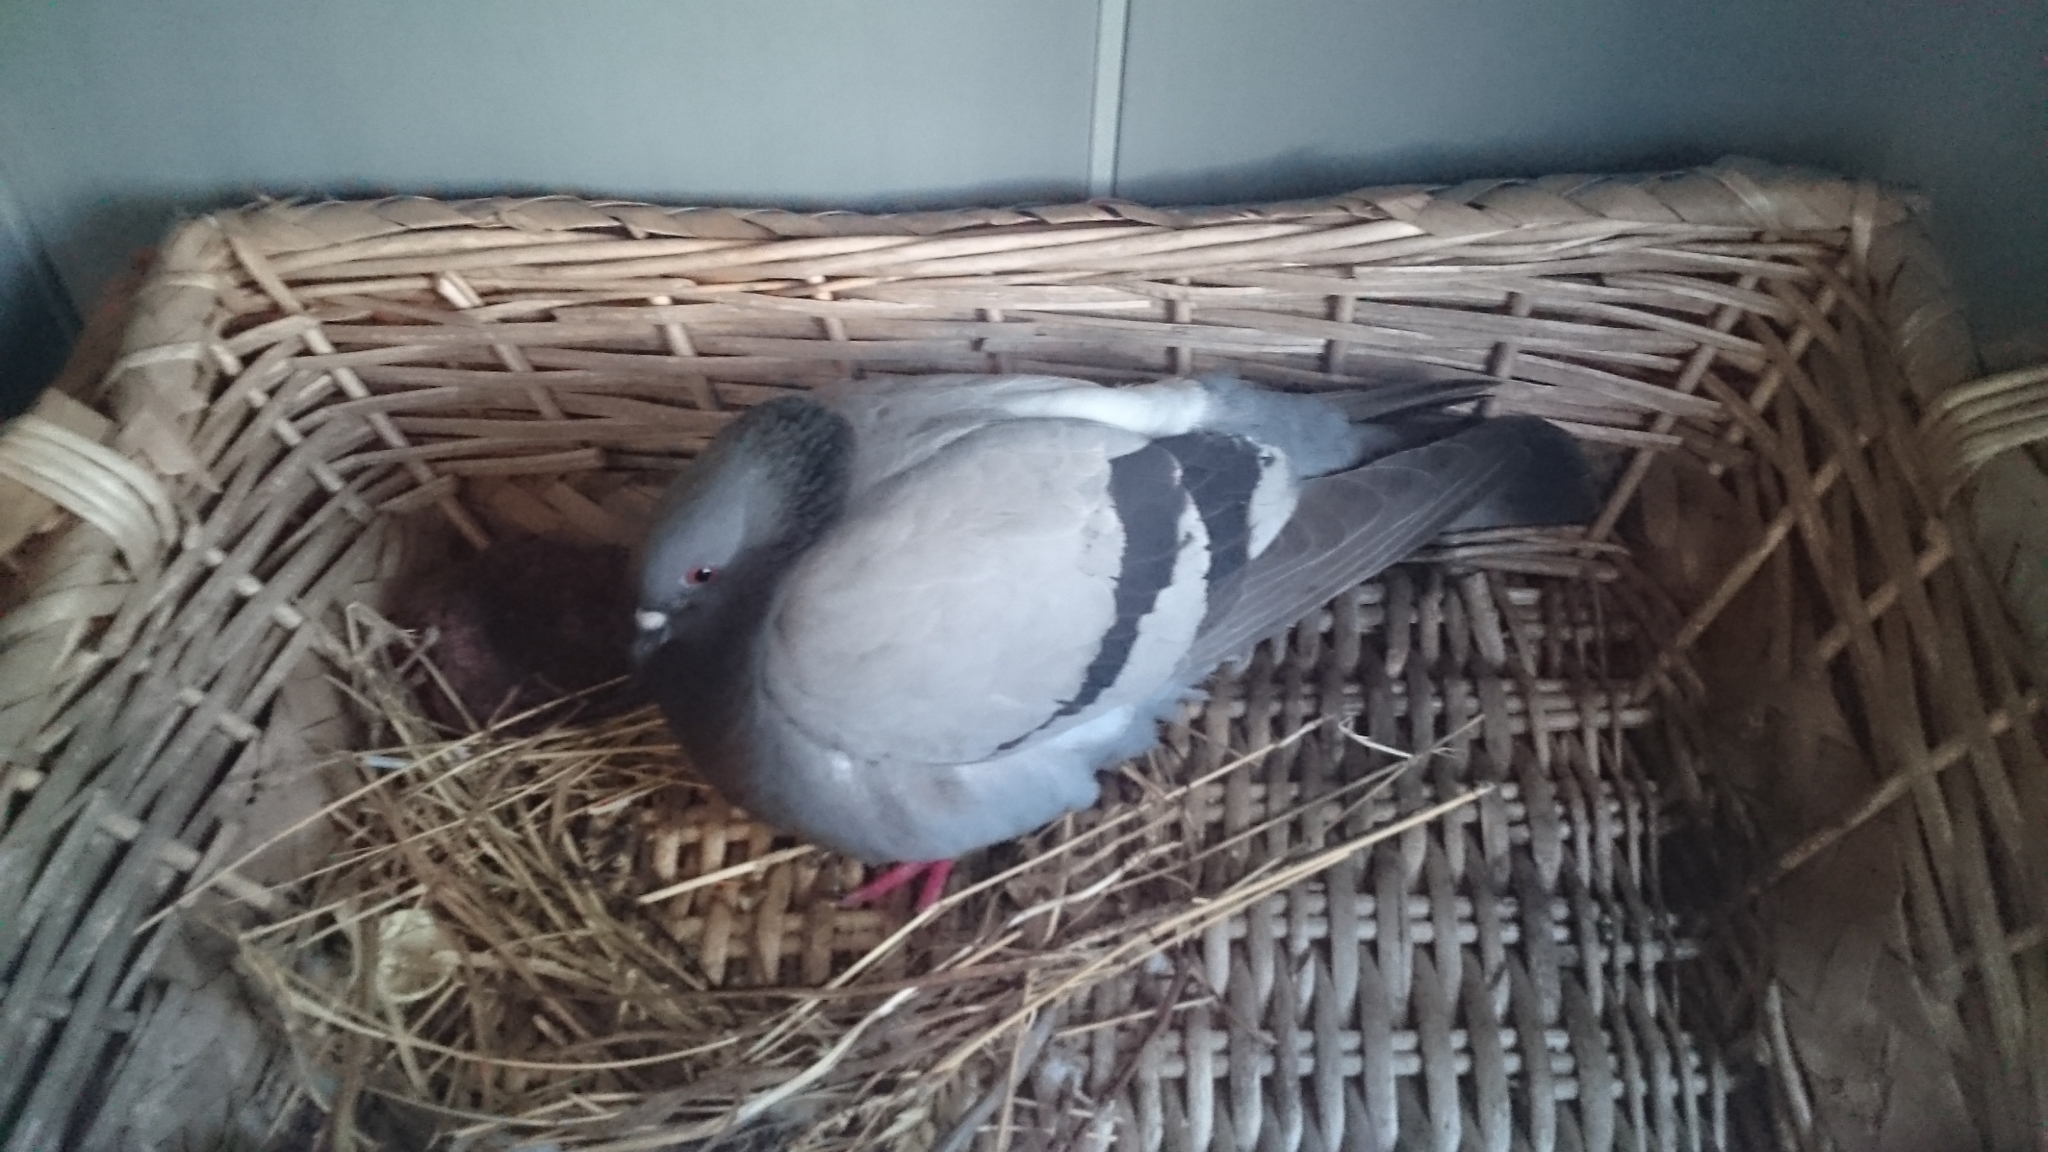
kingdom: Animalia
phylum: Chordata
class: Aves
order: Columbiformes
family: Columbidae
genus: Columba
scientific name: Columba livia
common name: Rock pigeon
